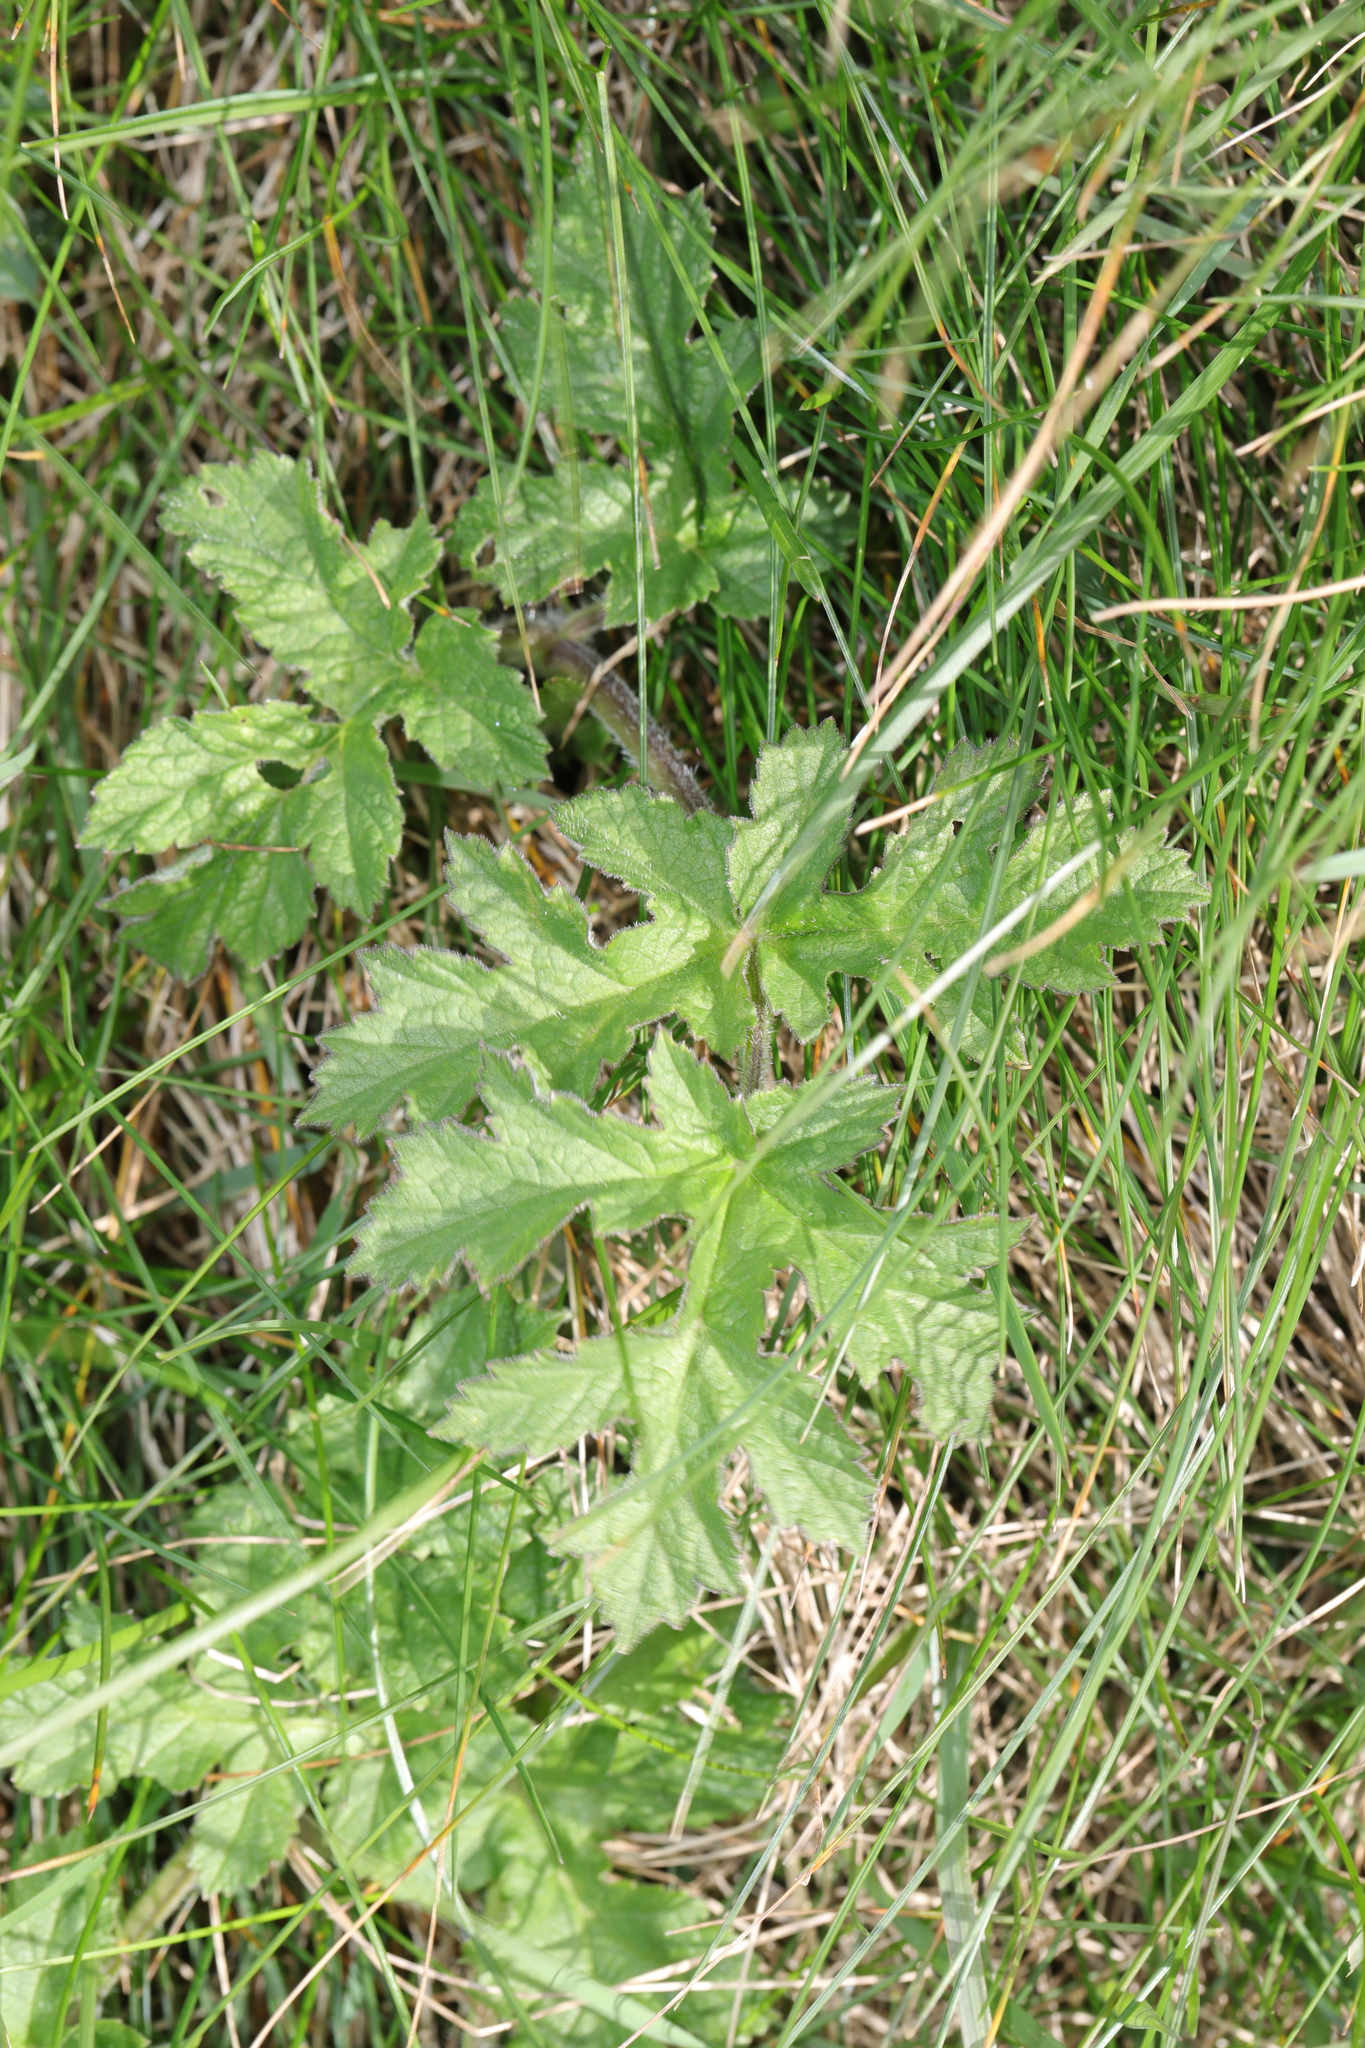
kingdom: Plantae
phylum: Tracheophyta
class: Magnoliopsida
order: Apiales
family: Apiaceae
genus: Heracleum
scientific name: Heracleum sphondylium
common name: Hogweed
